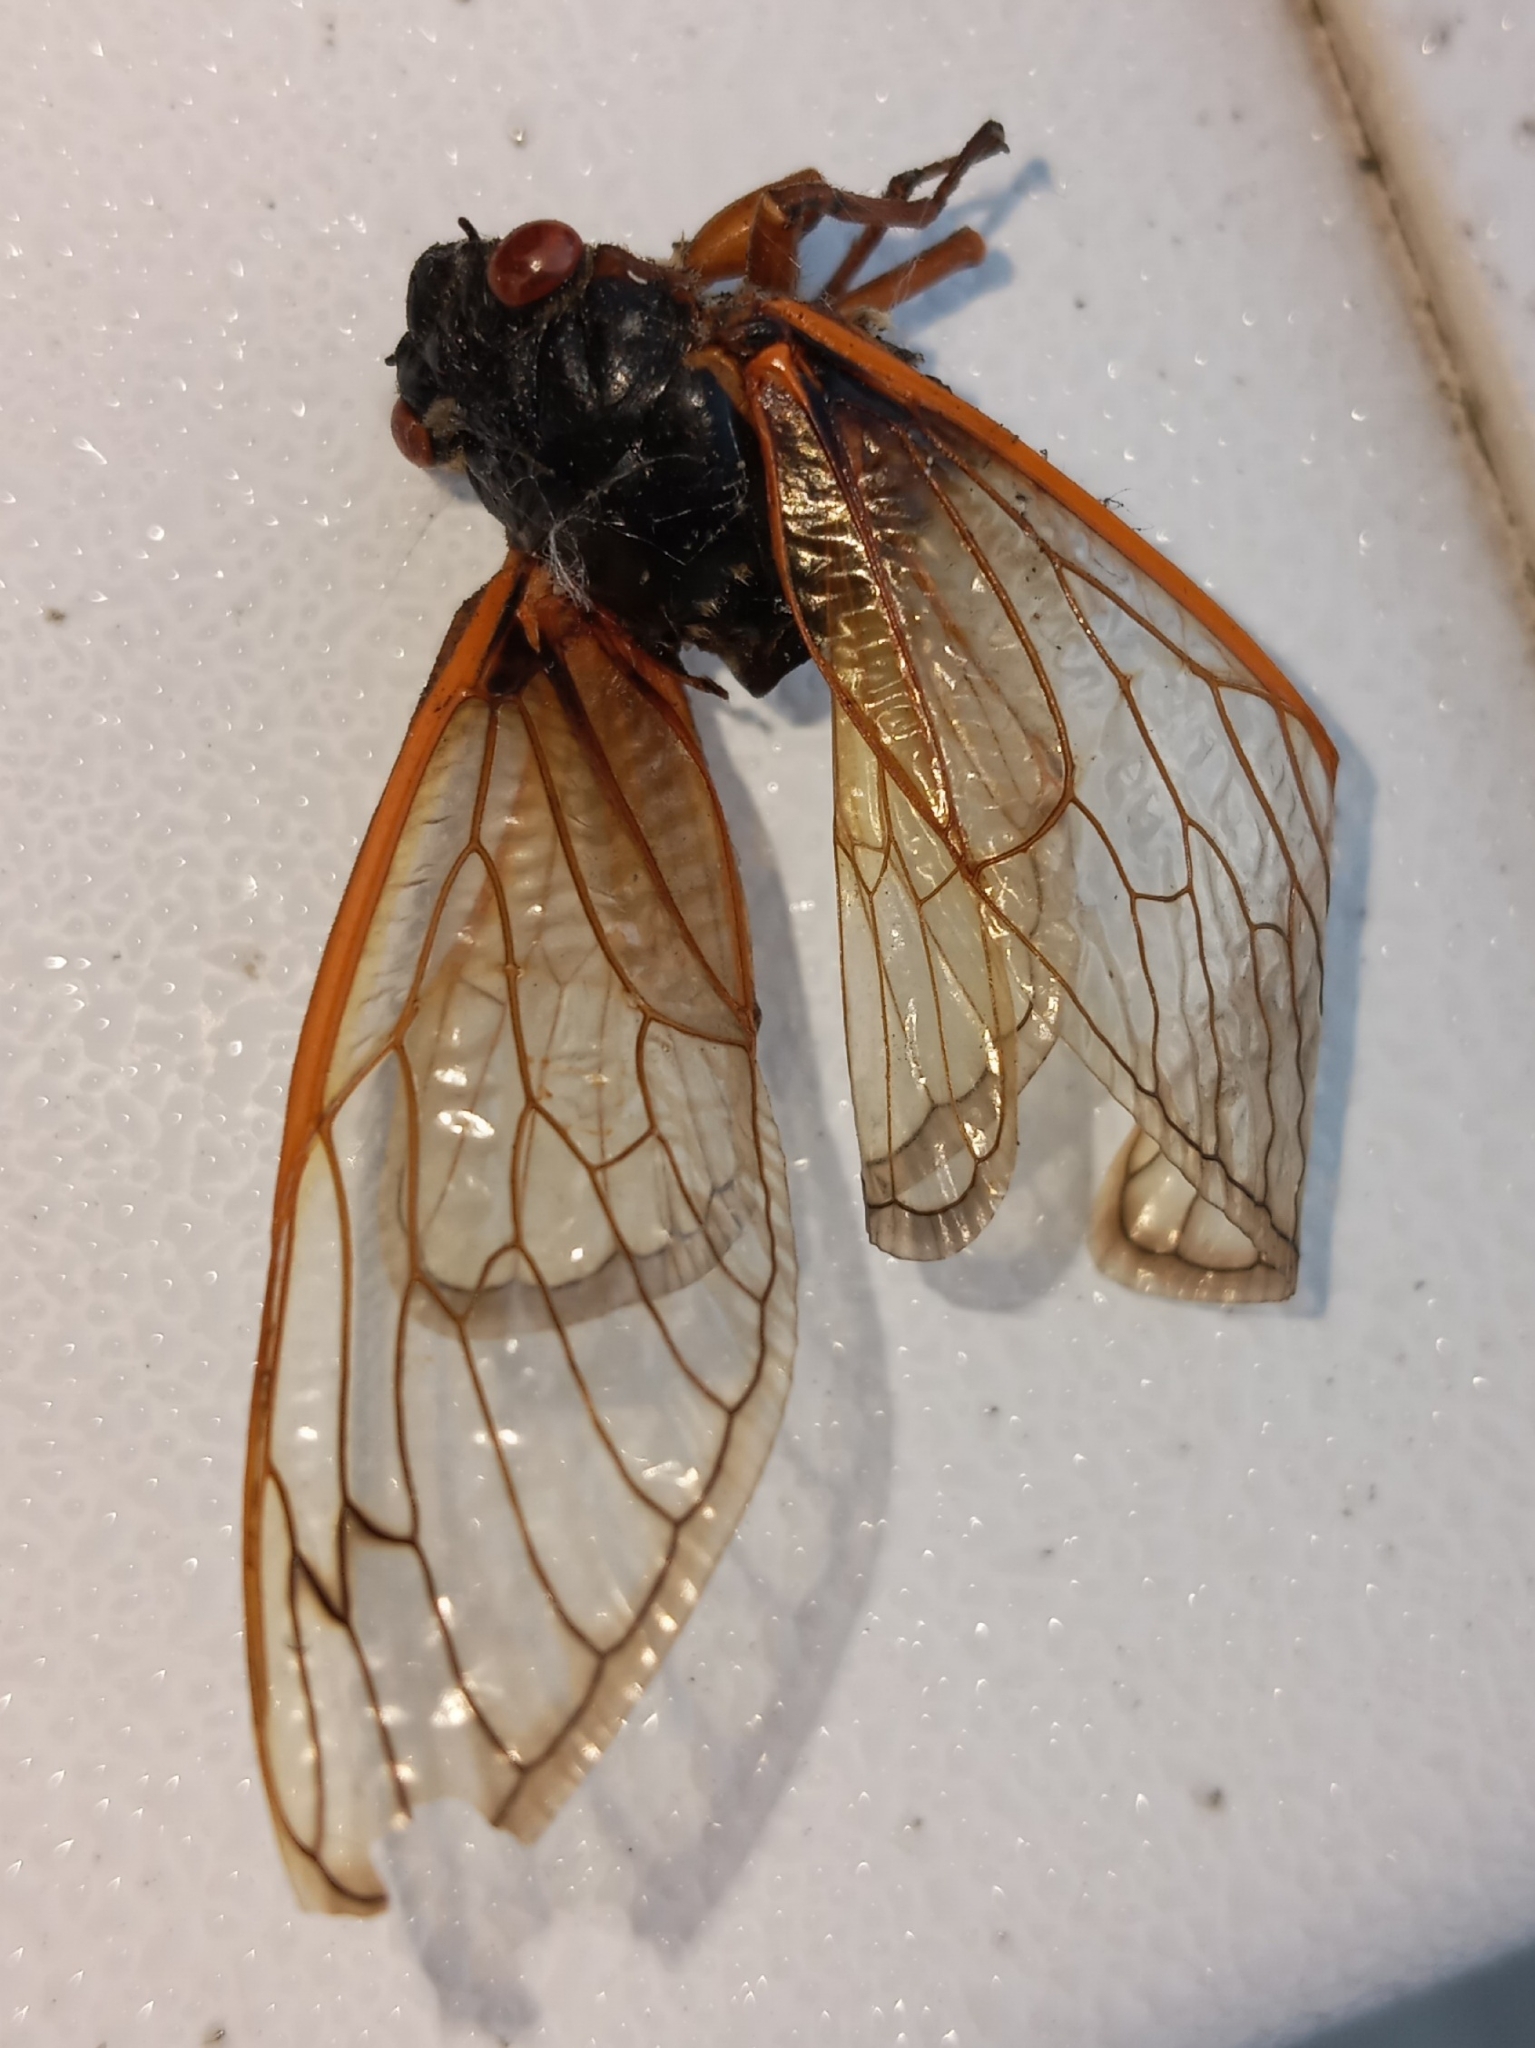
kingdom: Animalia
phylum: Arthropoda
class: Insecta
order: Hemiptera
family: Cicadidae
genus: Magicicada
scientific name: Magicicada septendecim
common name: Periodical cicada
